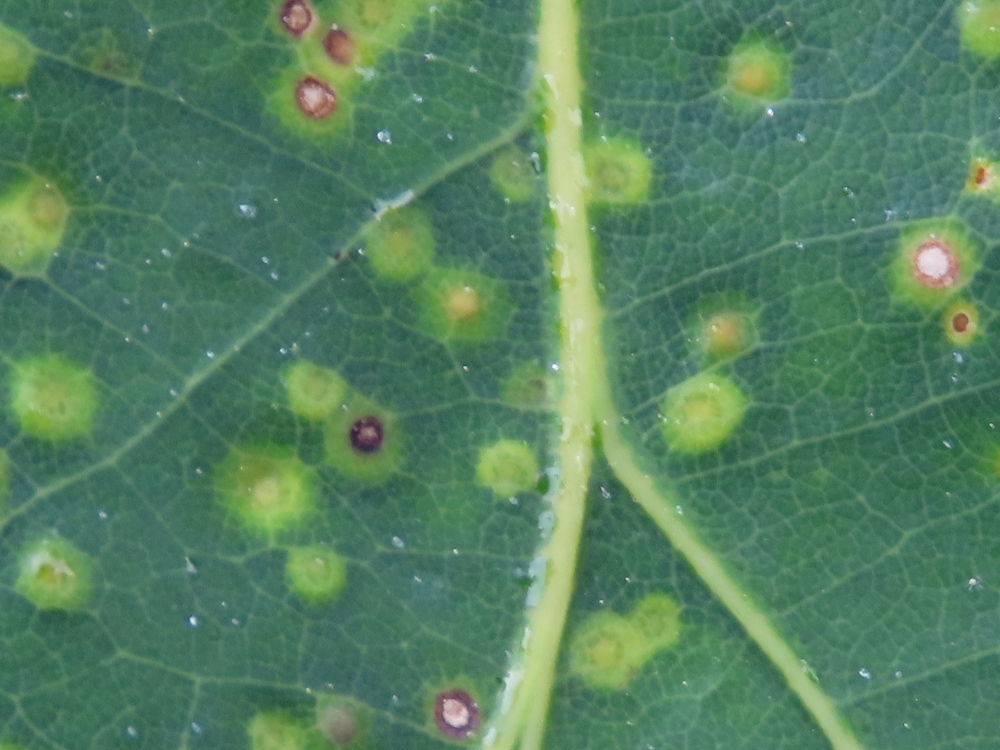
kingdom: Animalia
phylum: Arthropoda
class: Insecta
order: Hymenoptera
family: Cynipidae
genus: Neuroterus
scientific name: Neuroterus
